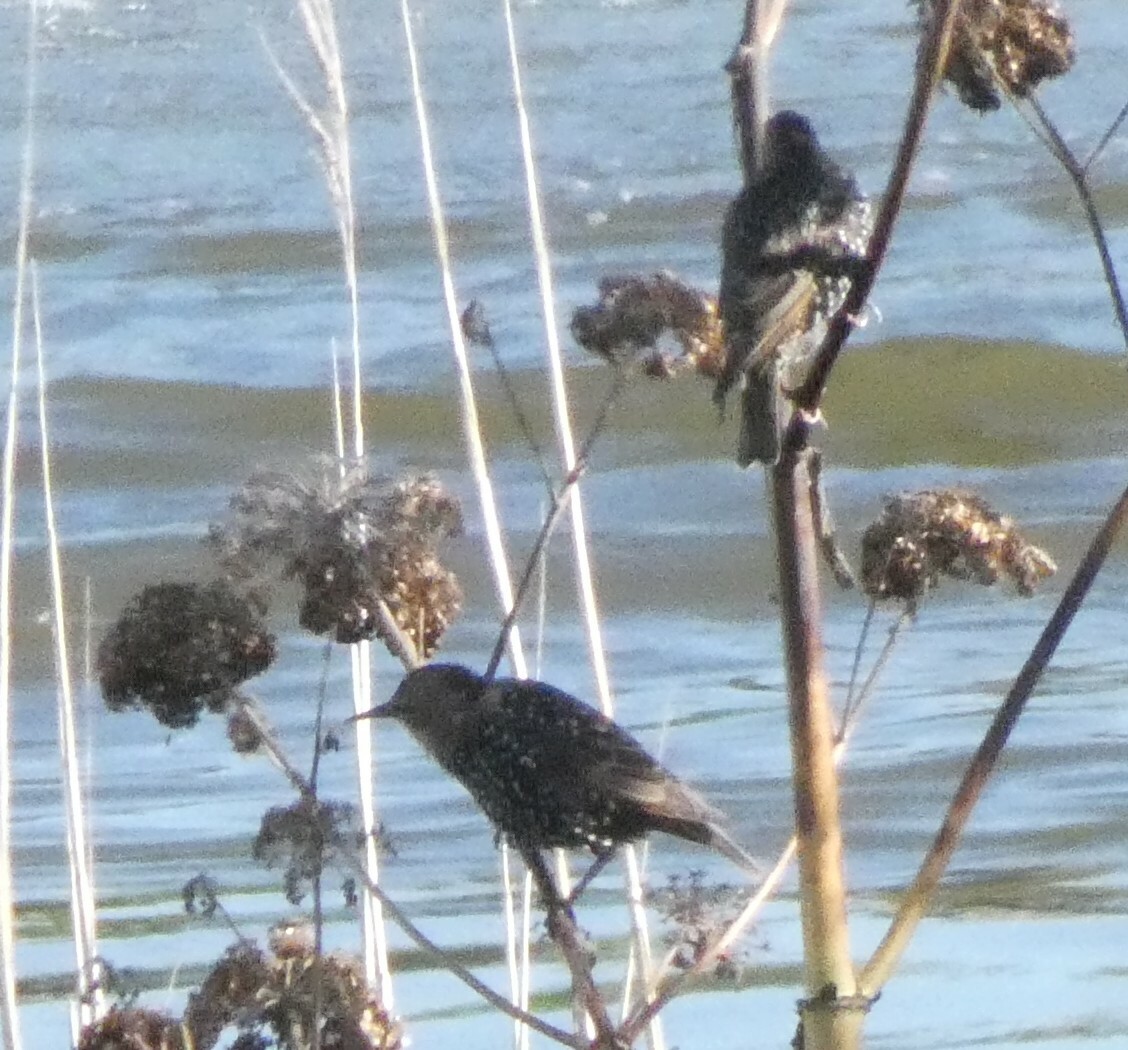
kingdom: Animalia
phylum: Chordata
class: Aves
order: Passeriformes
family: Sturnidae
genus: Sturnus
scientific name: Sturnus vulgaris
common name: Common starling
